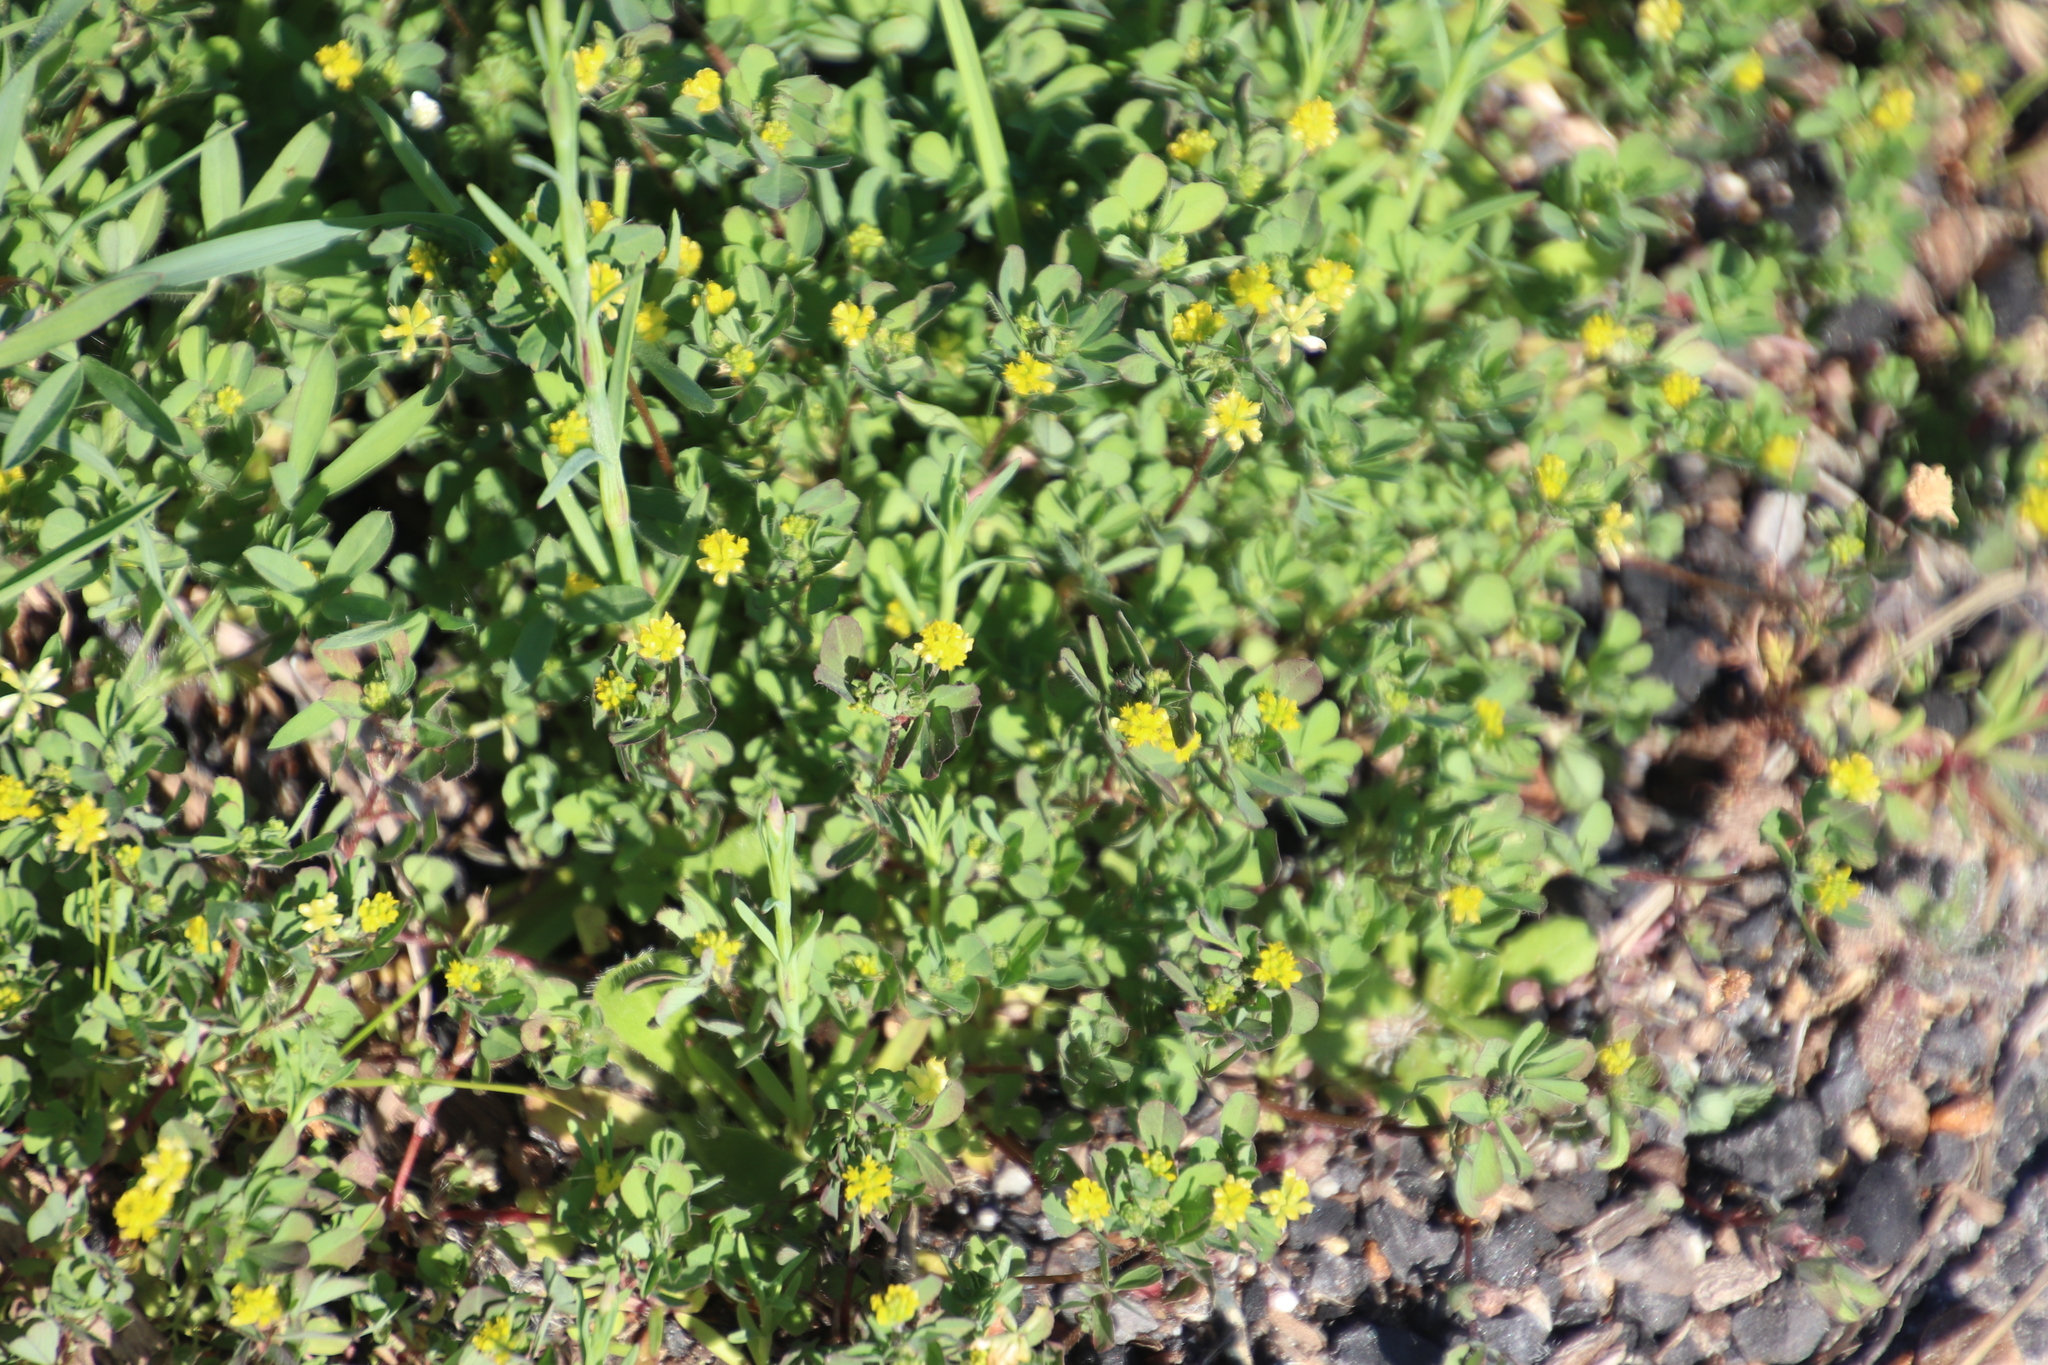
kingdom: Plantae
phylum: Tracheophyta
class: Magnoliopsida
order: Fabales
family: Fabaceae
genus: Trifolium
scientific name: Trifolium dubium
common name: Suckling clover
